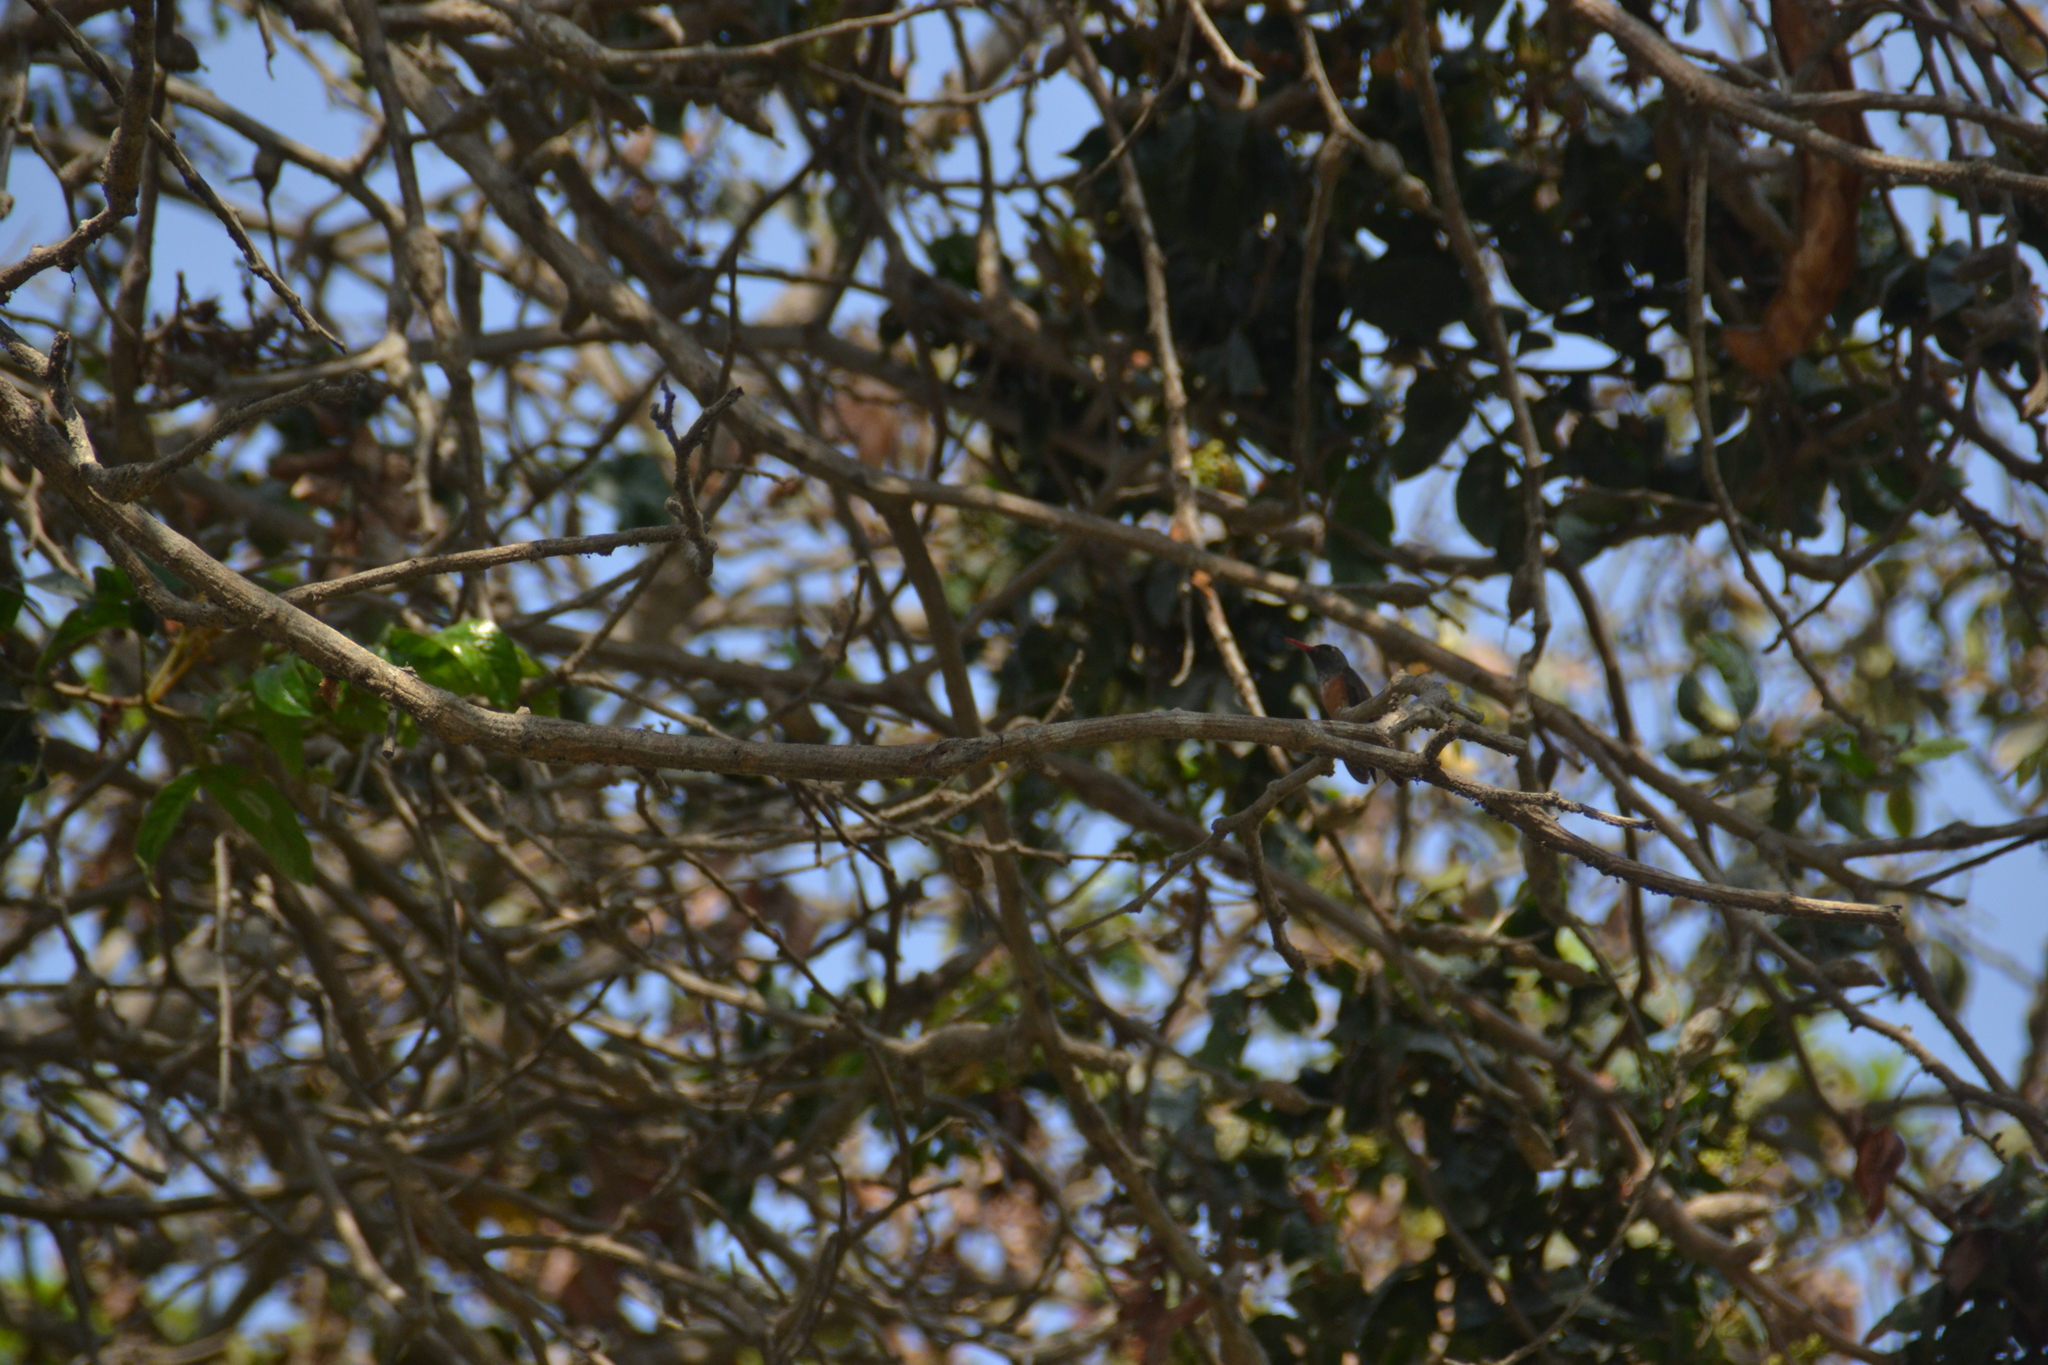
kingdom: Animalia
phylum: Chordata
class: Aves
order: Apodiformes
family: Trochilidae
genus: Amazilis
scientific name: Amazilis amazilia
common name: Amazilia hummingbird
